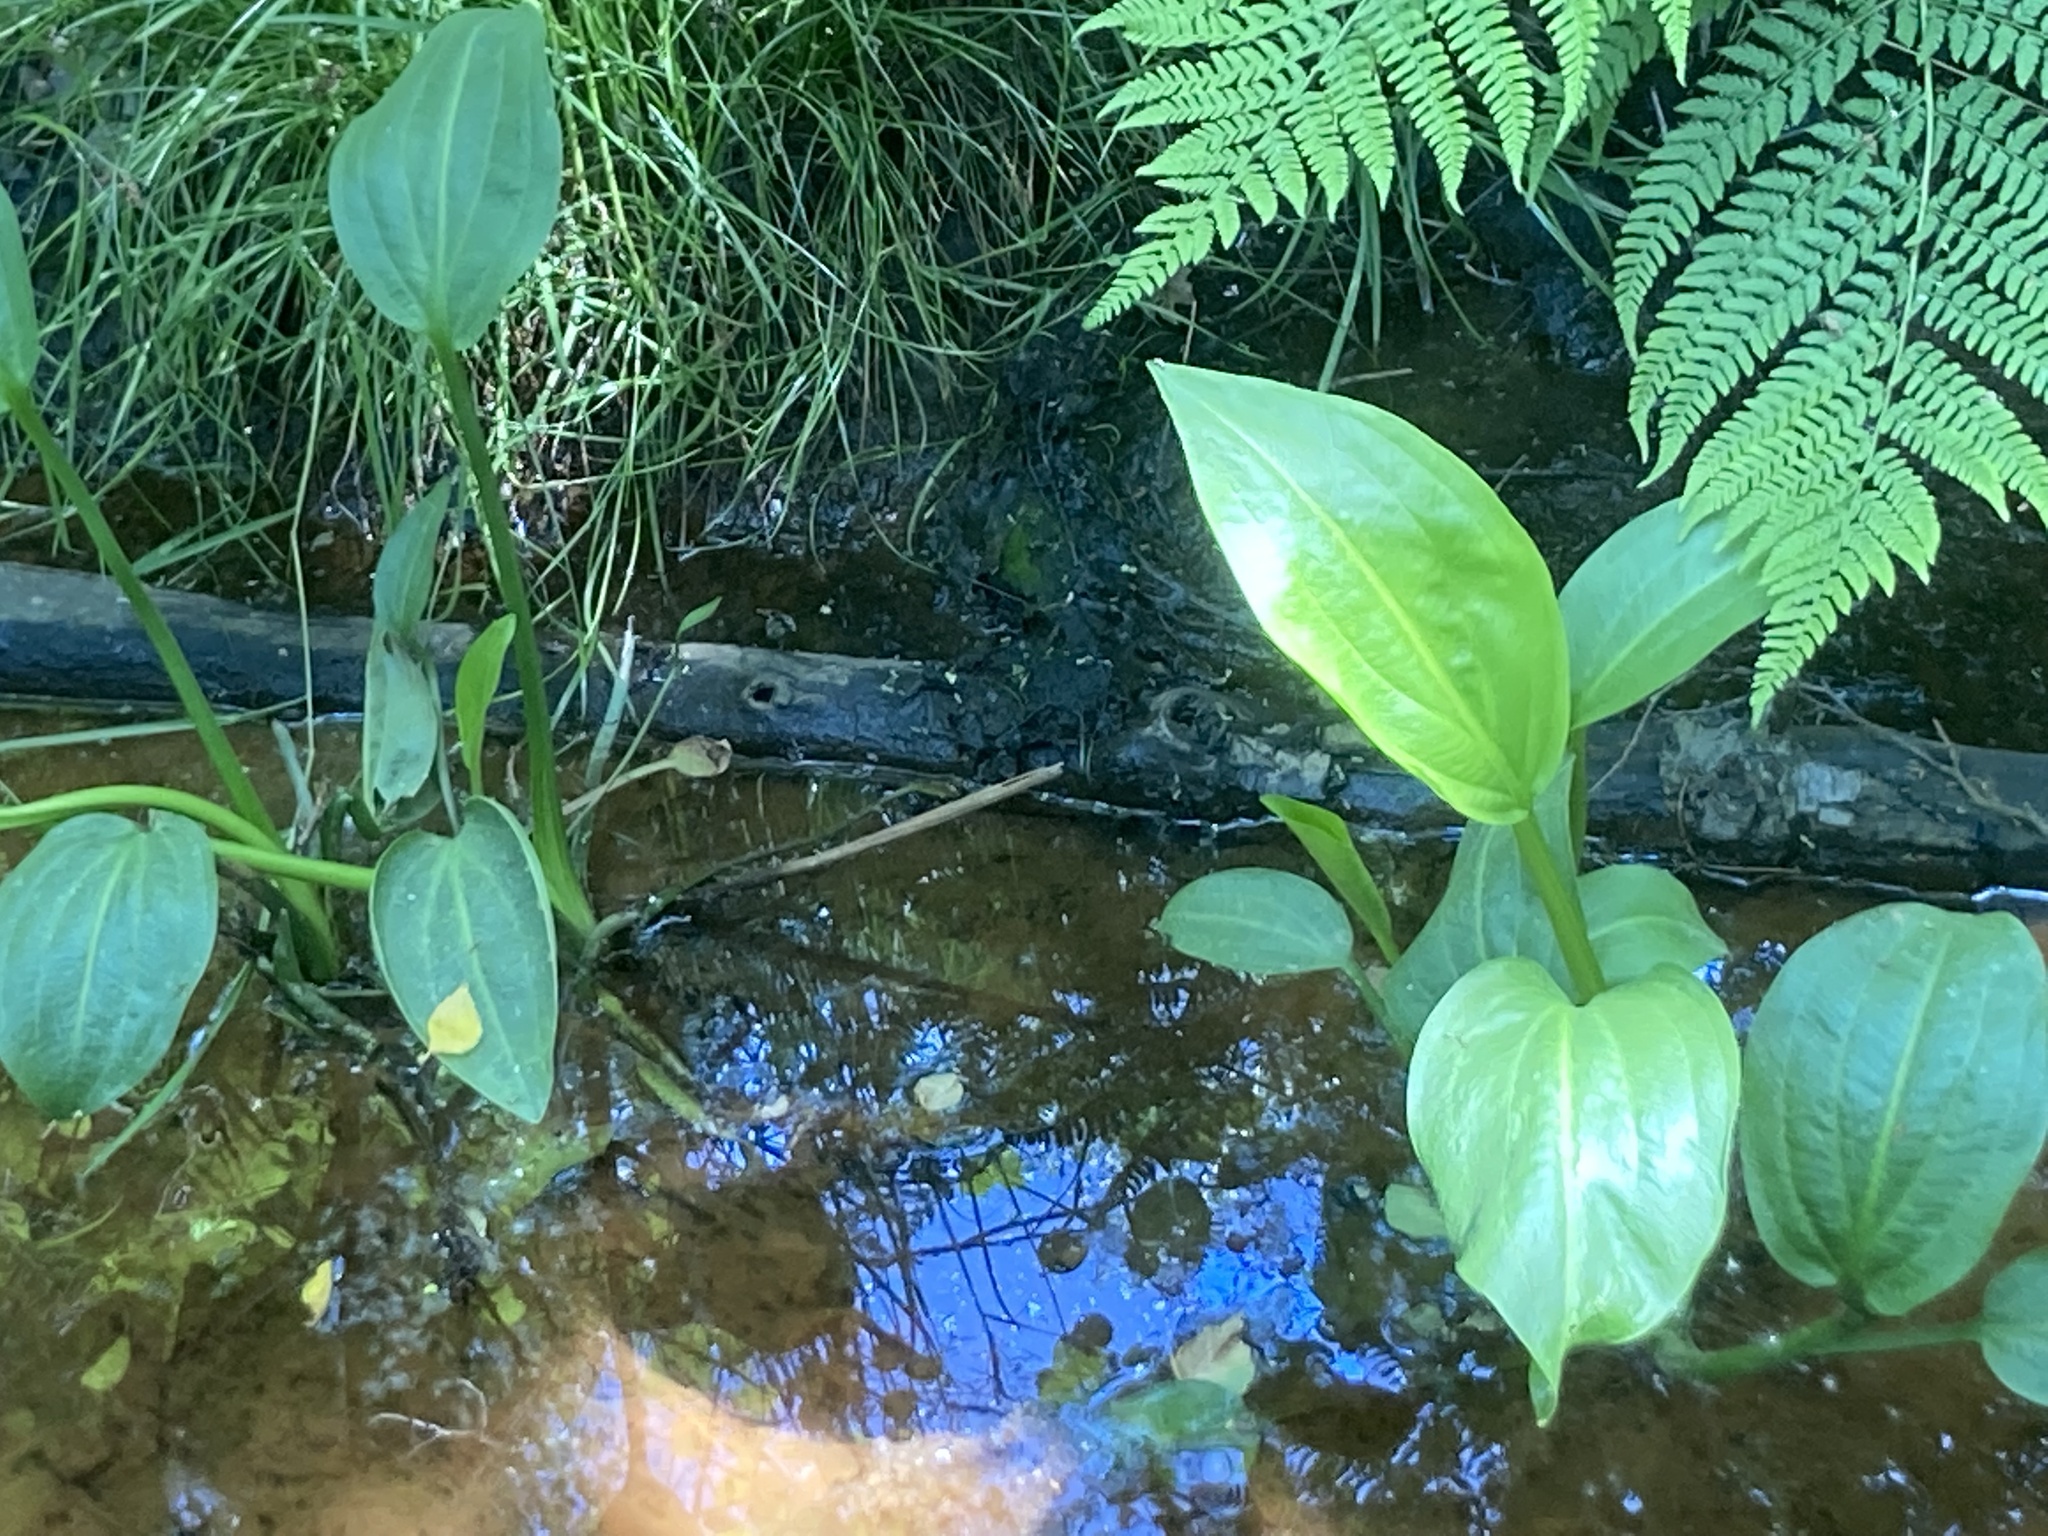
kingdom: Plantae
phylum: Tracheophyta
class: Liliopsida
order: Alismatales
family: Alismataceae
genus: Alisma
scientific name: Alisma plantago-aquatica
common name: Water-plantain
